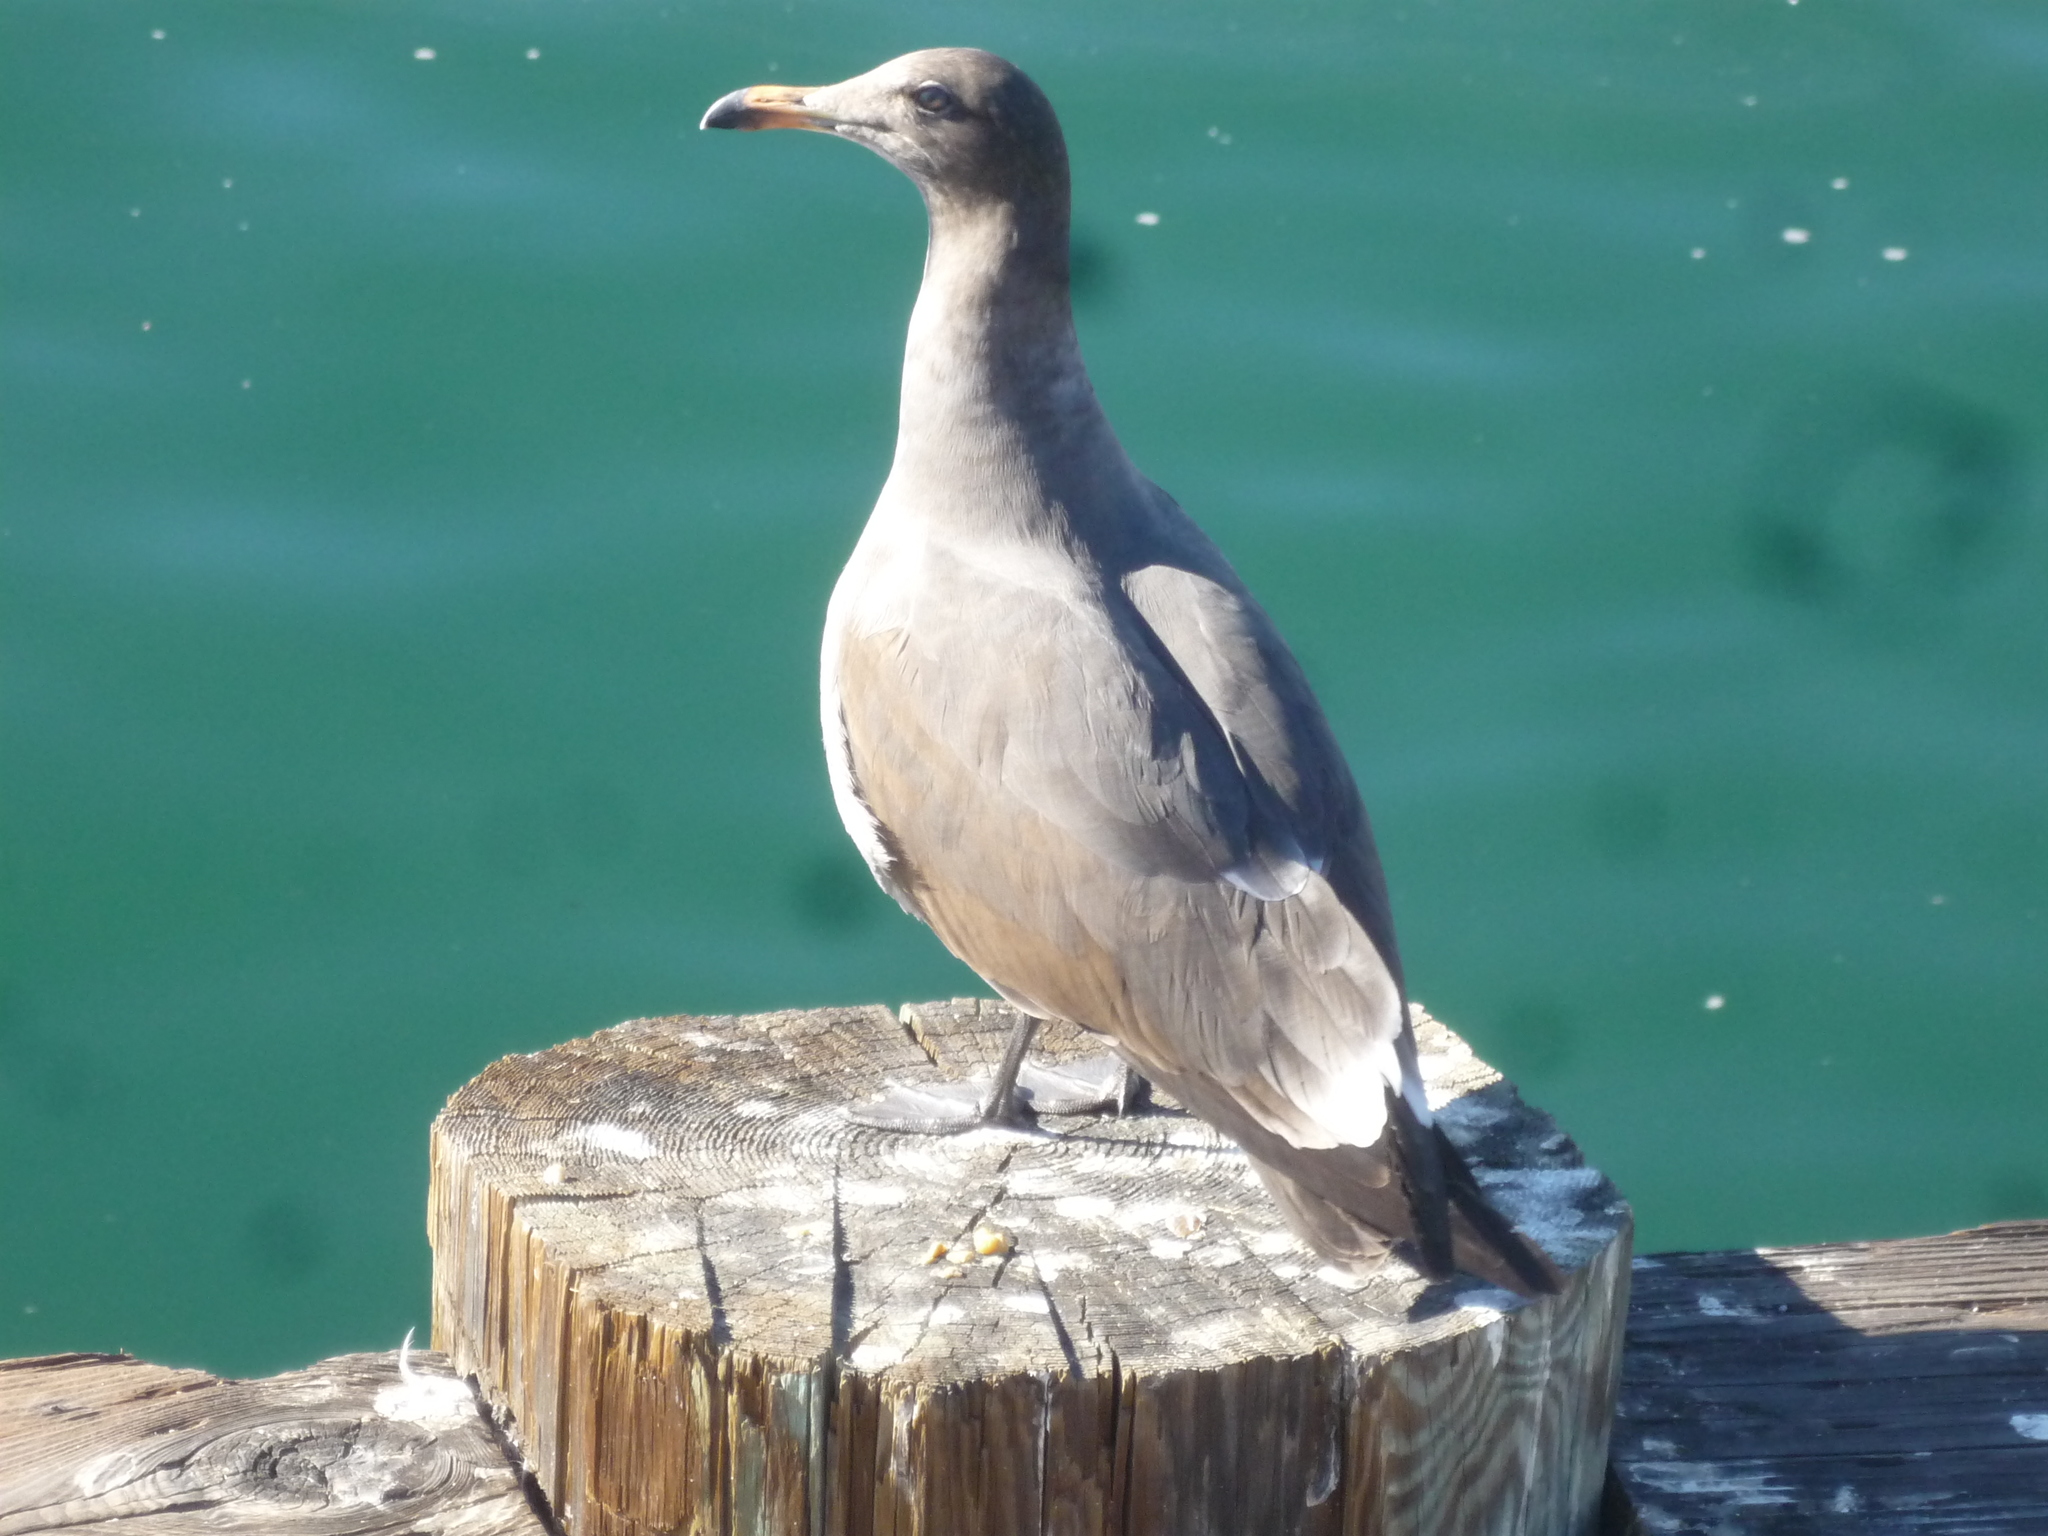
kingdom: Animalia
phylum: Chordata
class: Aves
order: Charadriiformes
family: Laridae
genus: Larus
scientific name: Larus heermanni
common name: Heermann's gull
